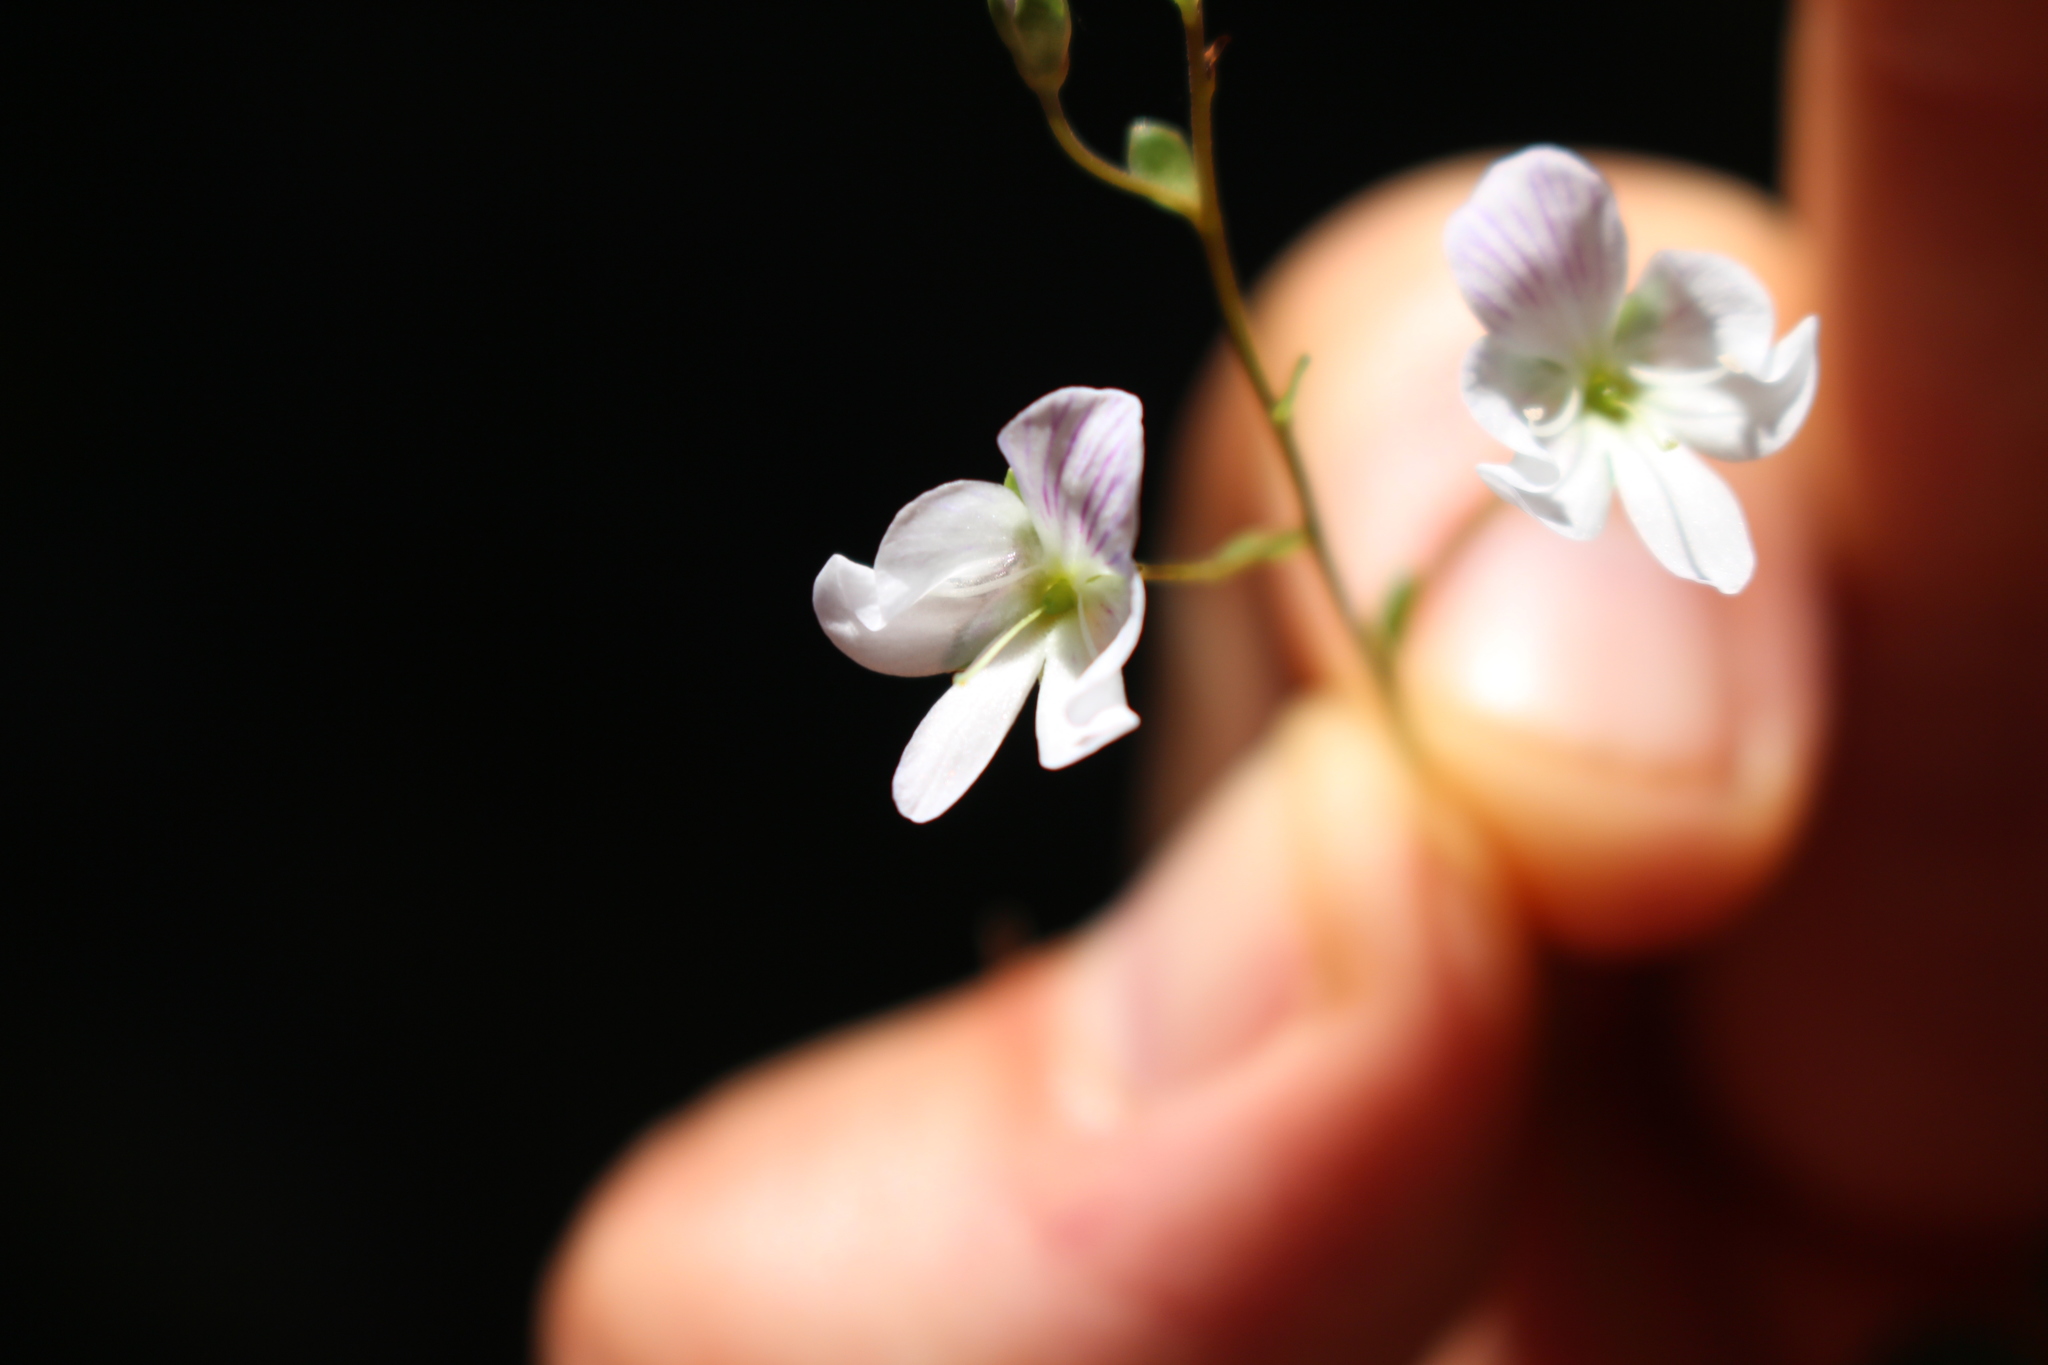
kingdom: Plantae
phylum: Tracheophyta
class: Magnoliopsida
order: Lamiales
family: Plantaginaceae
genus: Veronica
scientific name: Veronica lyallii
